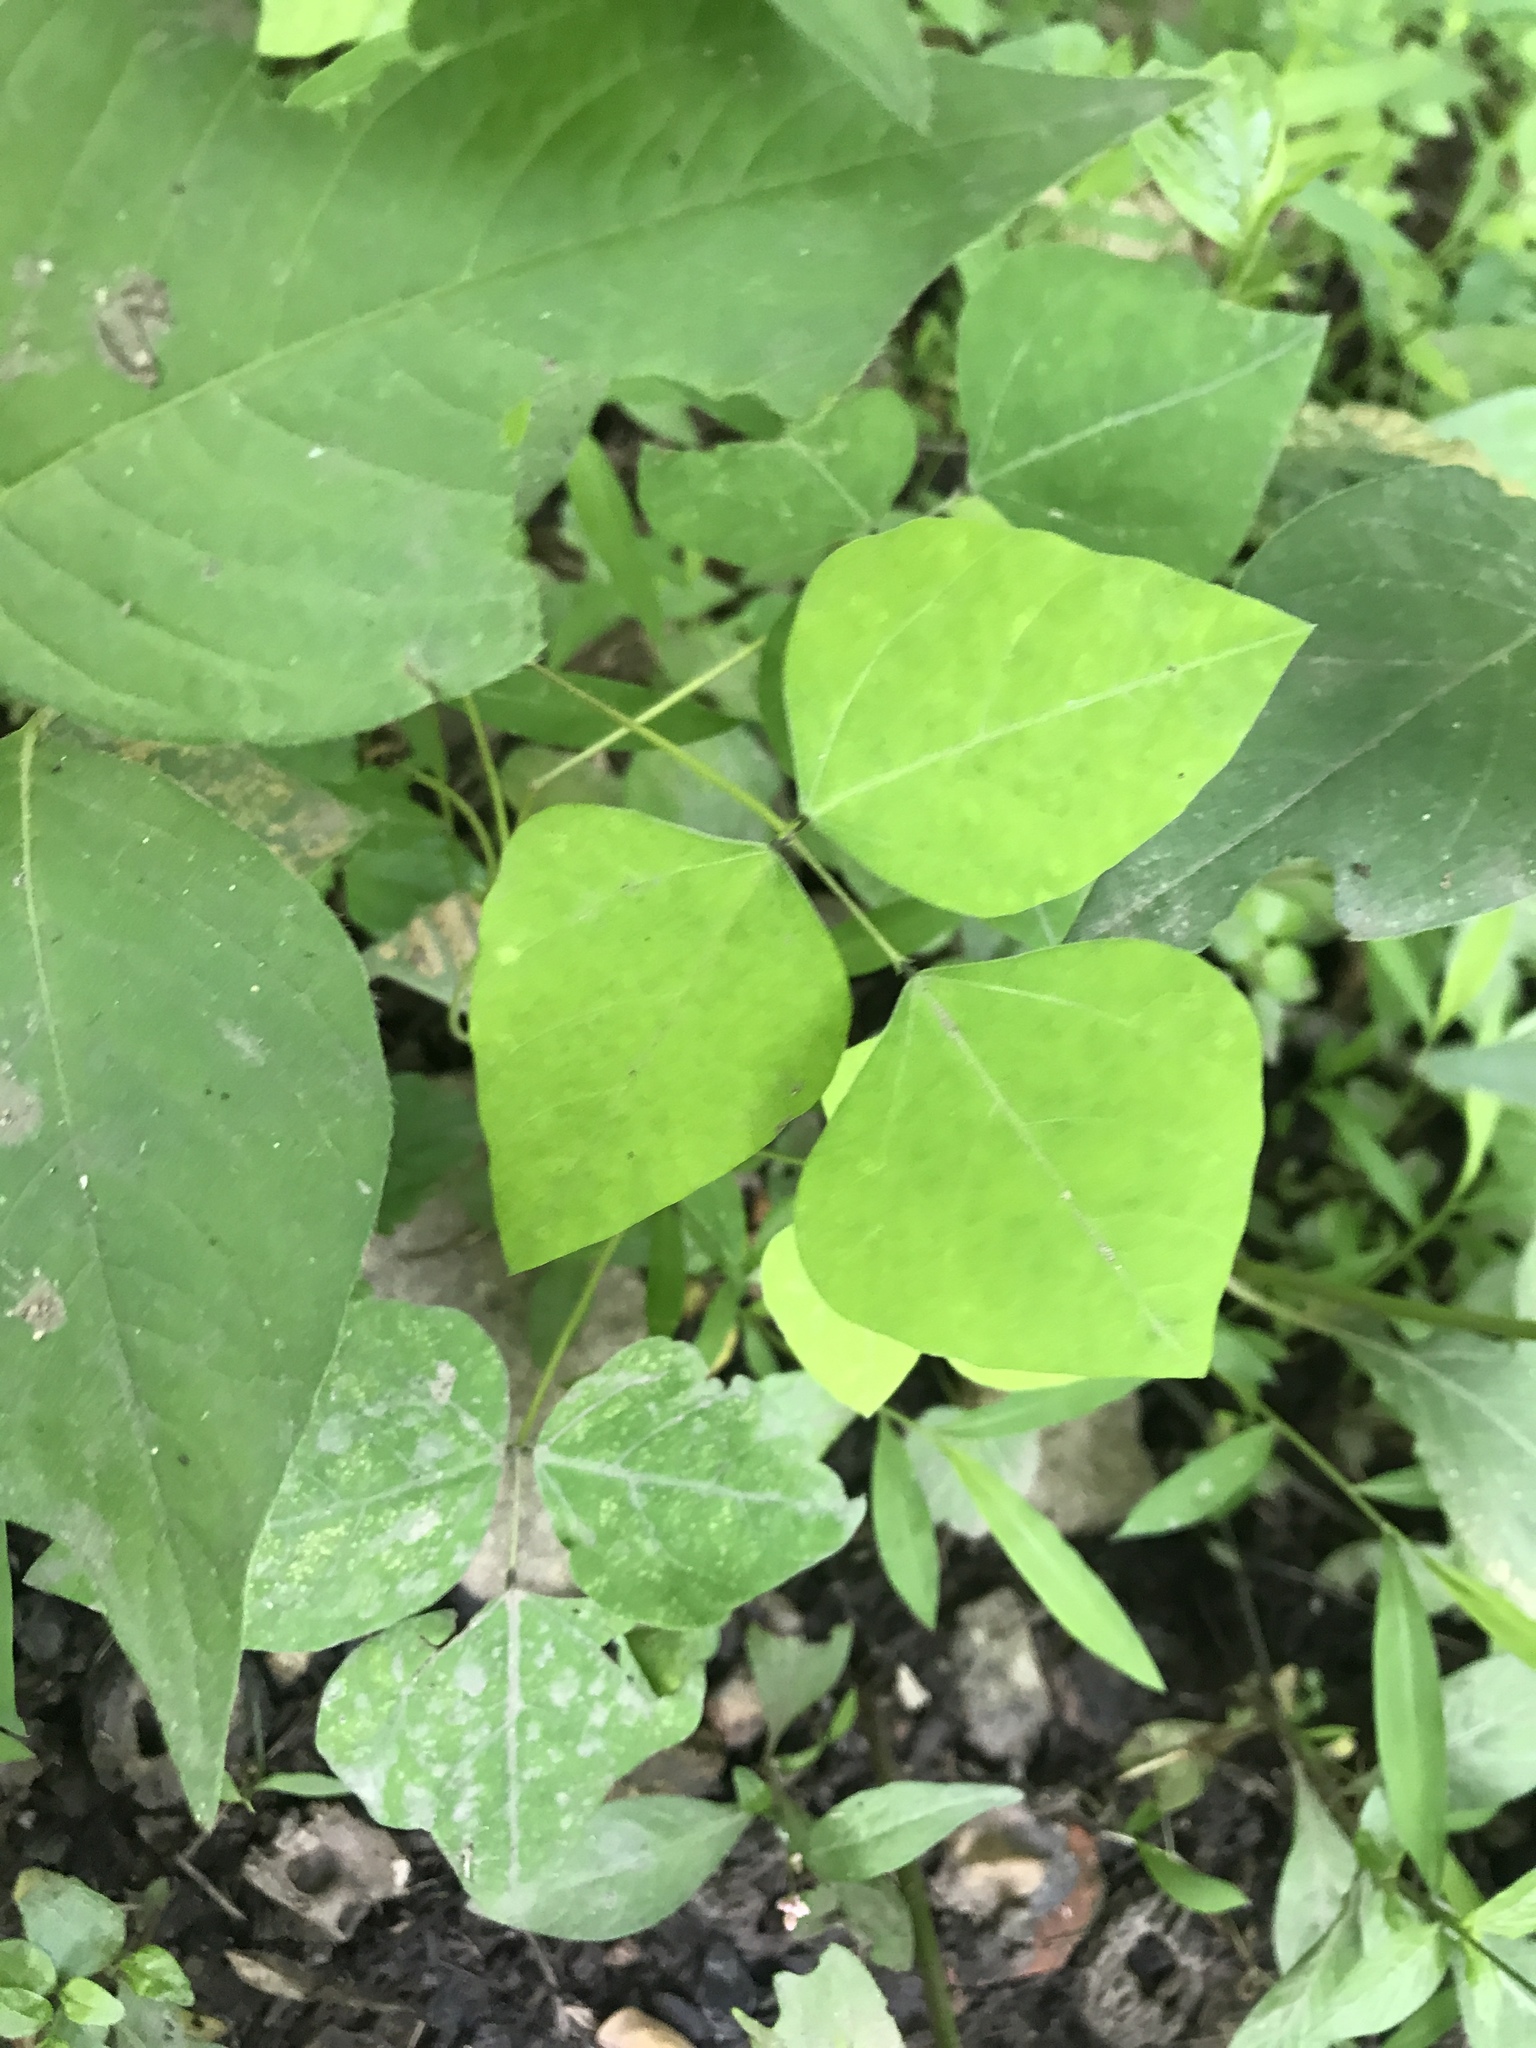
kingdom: Plantae
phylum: Tracheophyta
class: Magnoliopsida
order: Fabales
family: Fabaceae
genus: Amphicarpaea
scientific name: Amphicarpaea bracteata
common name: American hog peanut
